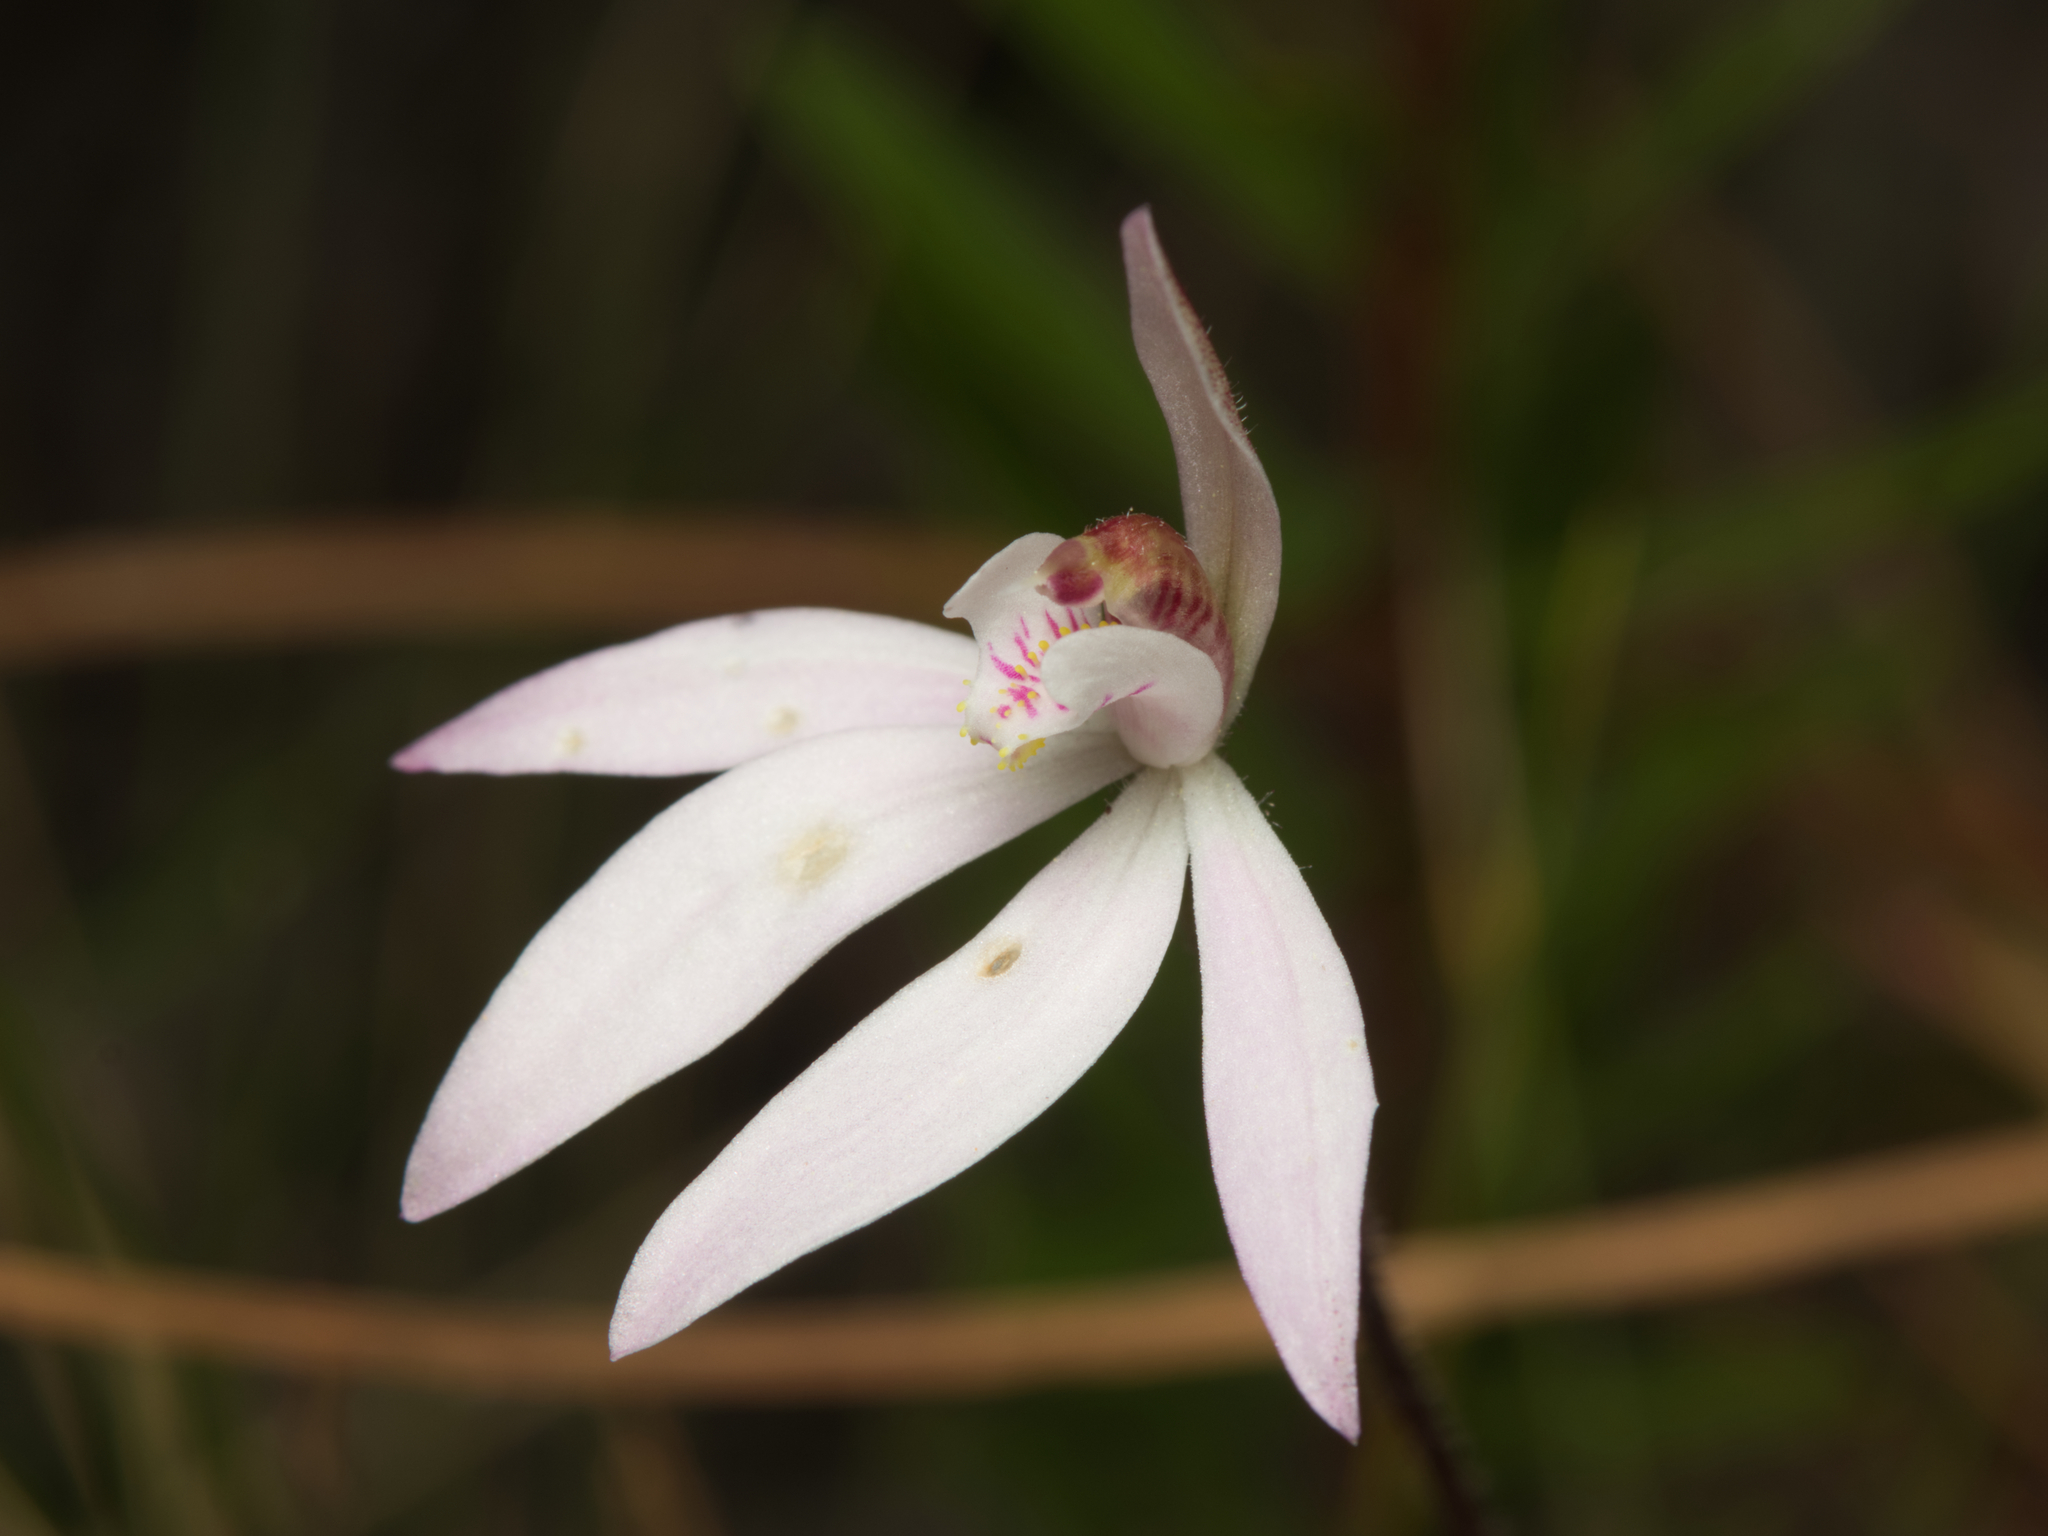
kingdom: Plantae
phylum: Tracheophyta
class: Liliopsida
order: Asparagales
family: Orchidaceae
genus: Caladenia
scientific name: Caladenia carnea
